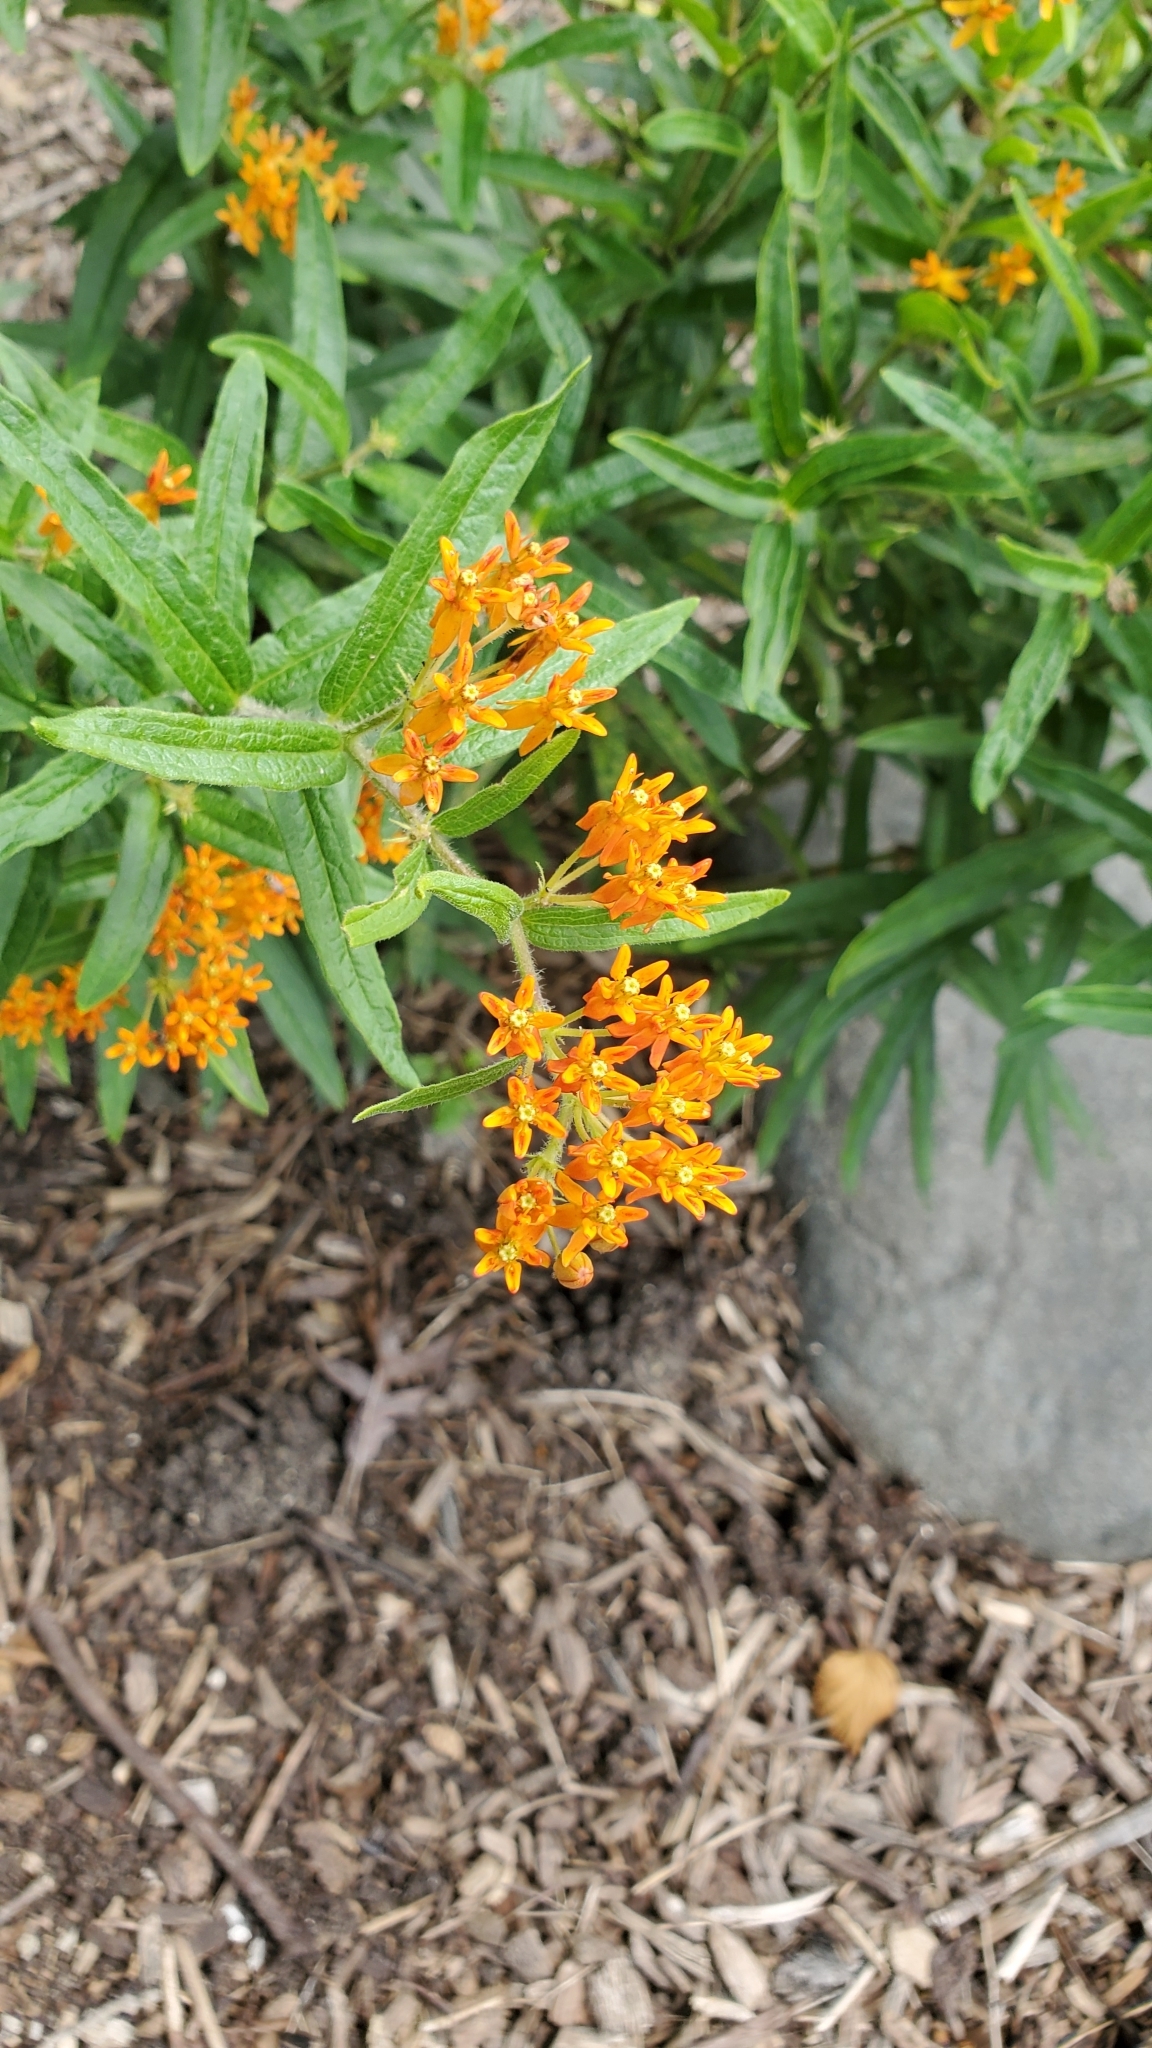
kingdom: Plantae
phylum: Tracheophyta
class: Magnoliopsida
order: Gentianales
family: Apocynaceae
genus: Asclepias
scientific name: Asclepias tuberosa
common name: Butterfly milkweed
